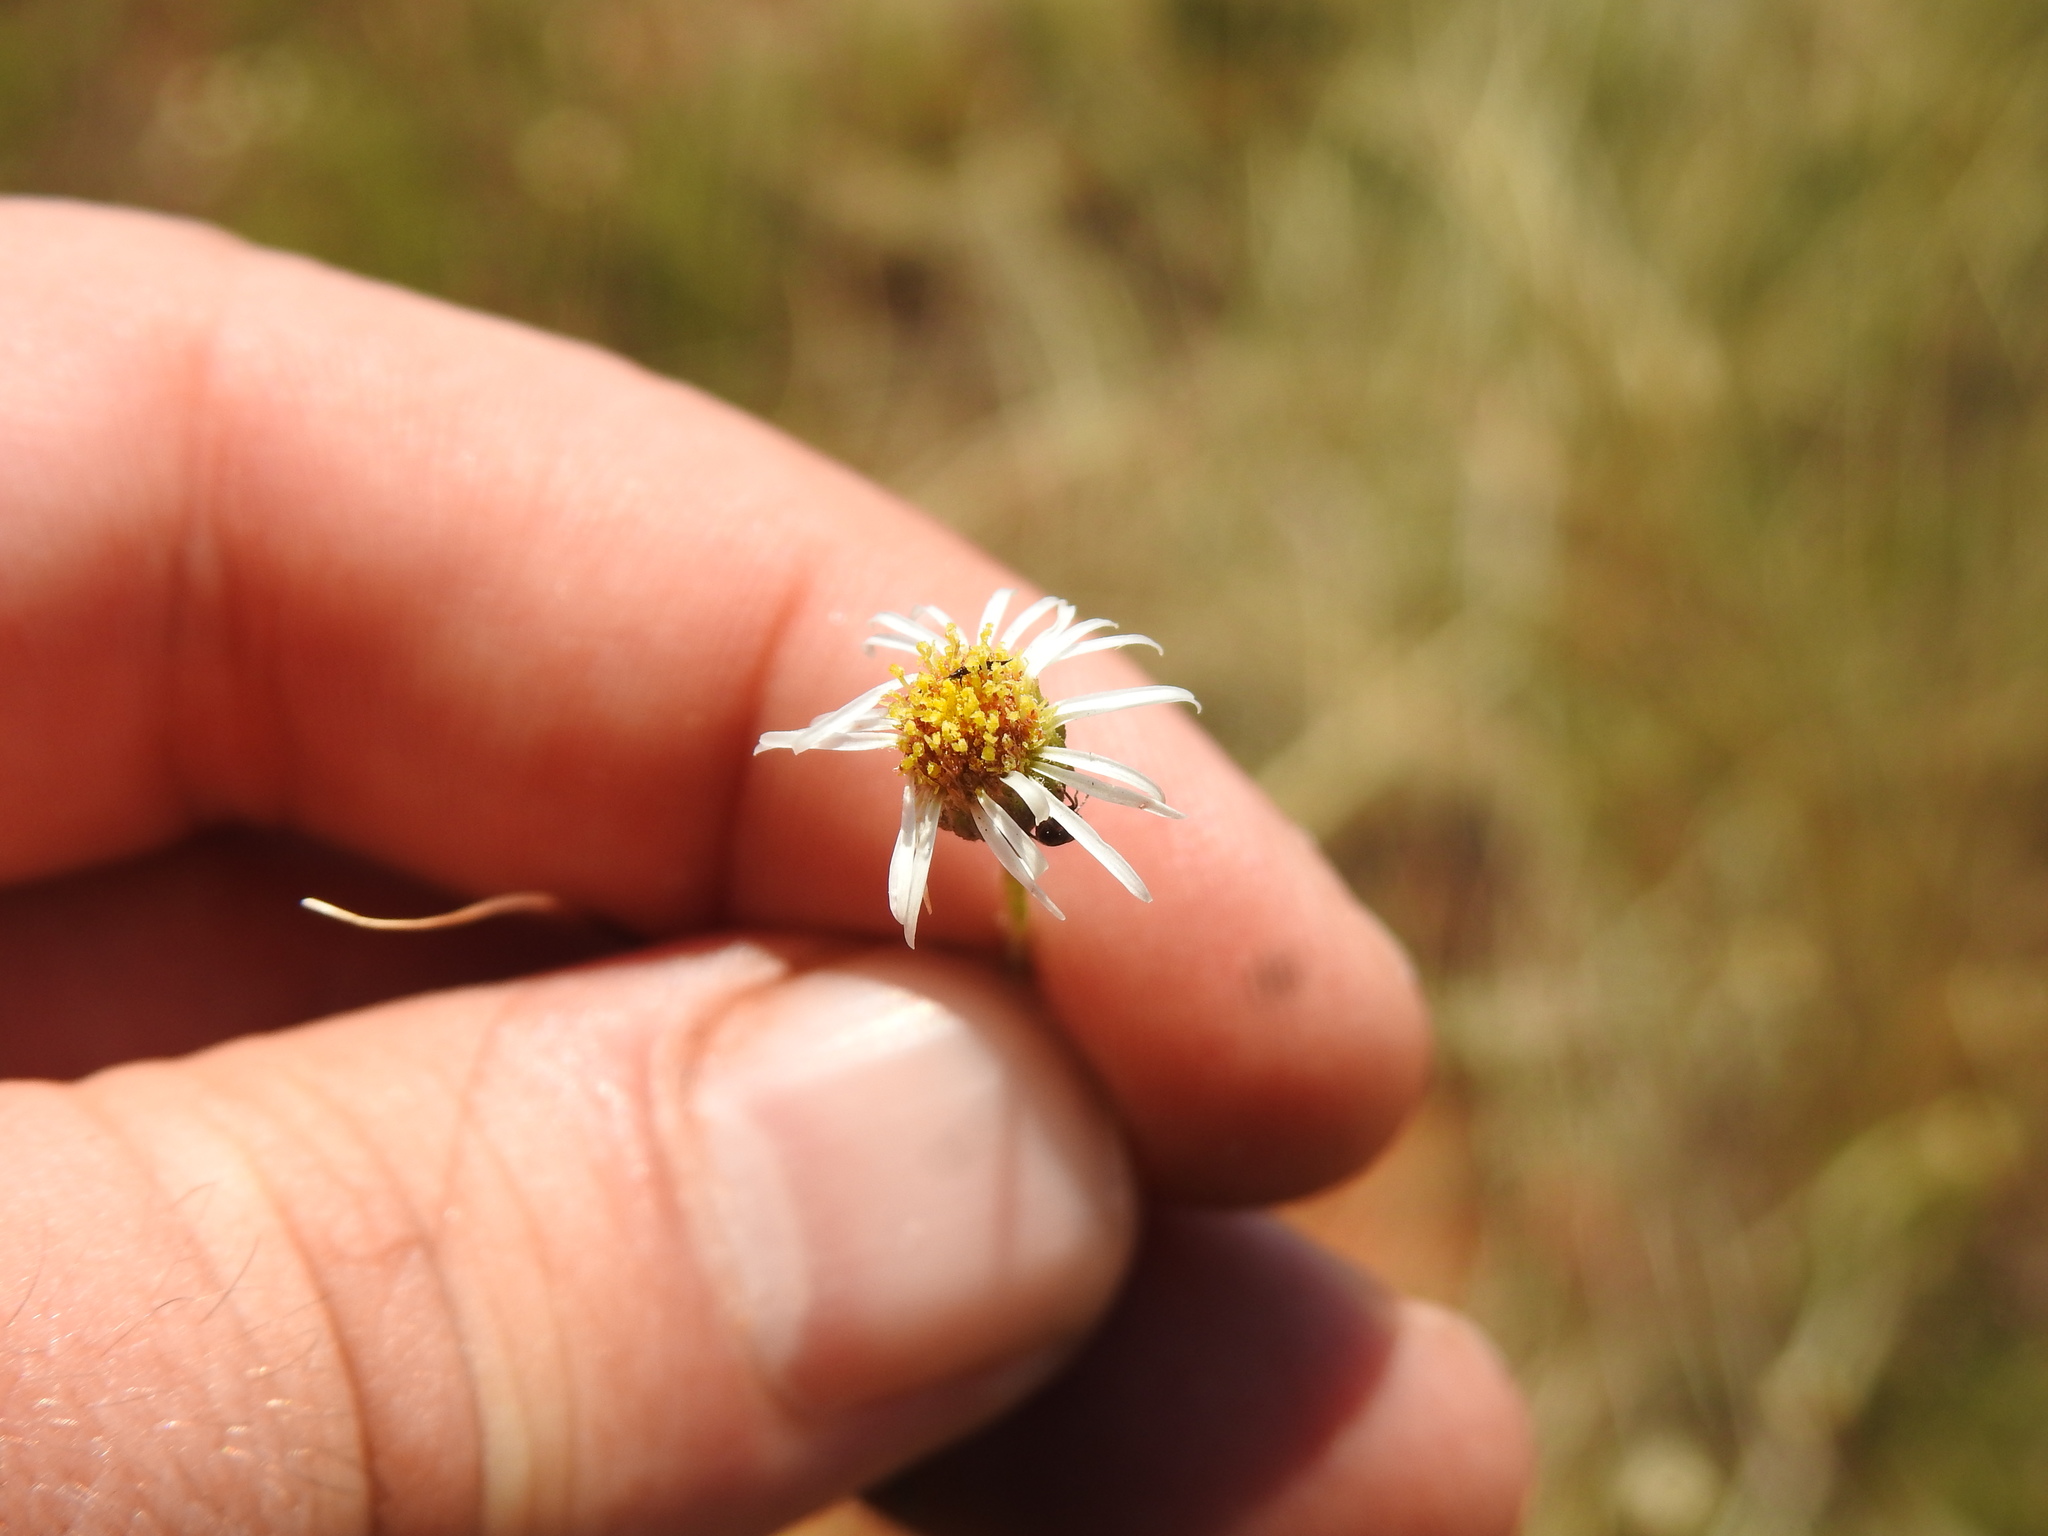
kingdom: Plantae
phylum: Tracheophyta
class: Magnoliopsida
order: Asterales
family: Asteraceae
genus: Felicia
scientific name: Felicia muricata
